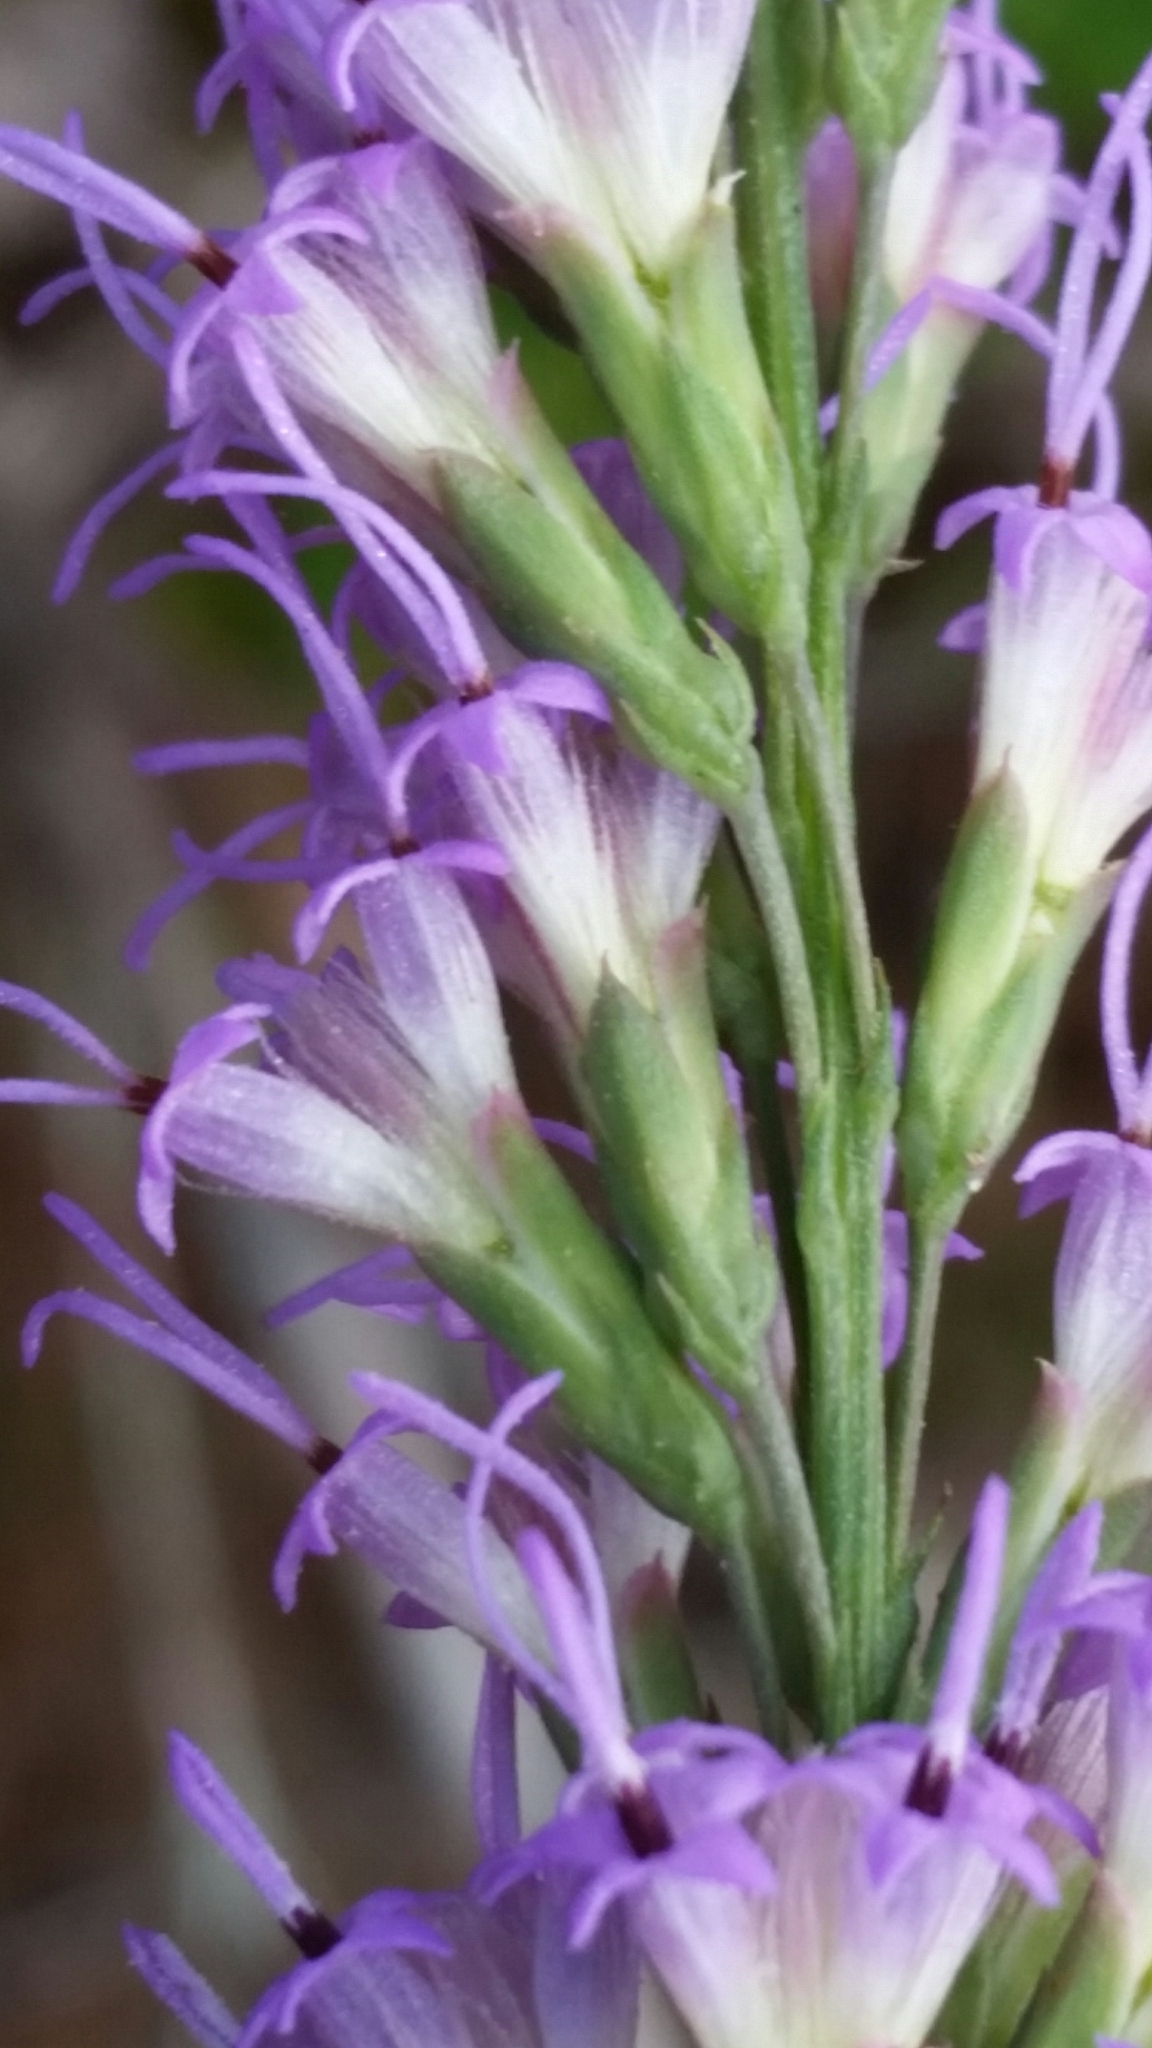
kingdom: Plantae
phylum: Tracheophyta
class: Magnoliopsida
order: Asterales
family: Asteraceae
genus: Liatris
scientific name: Liatris quadriflora
